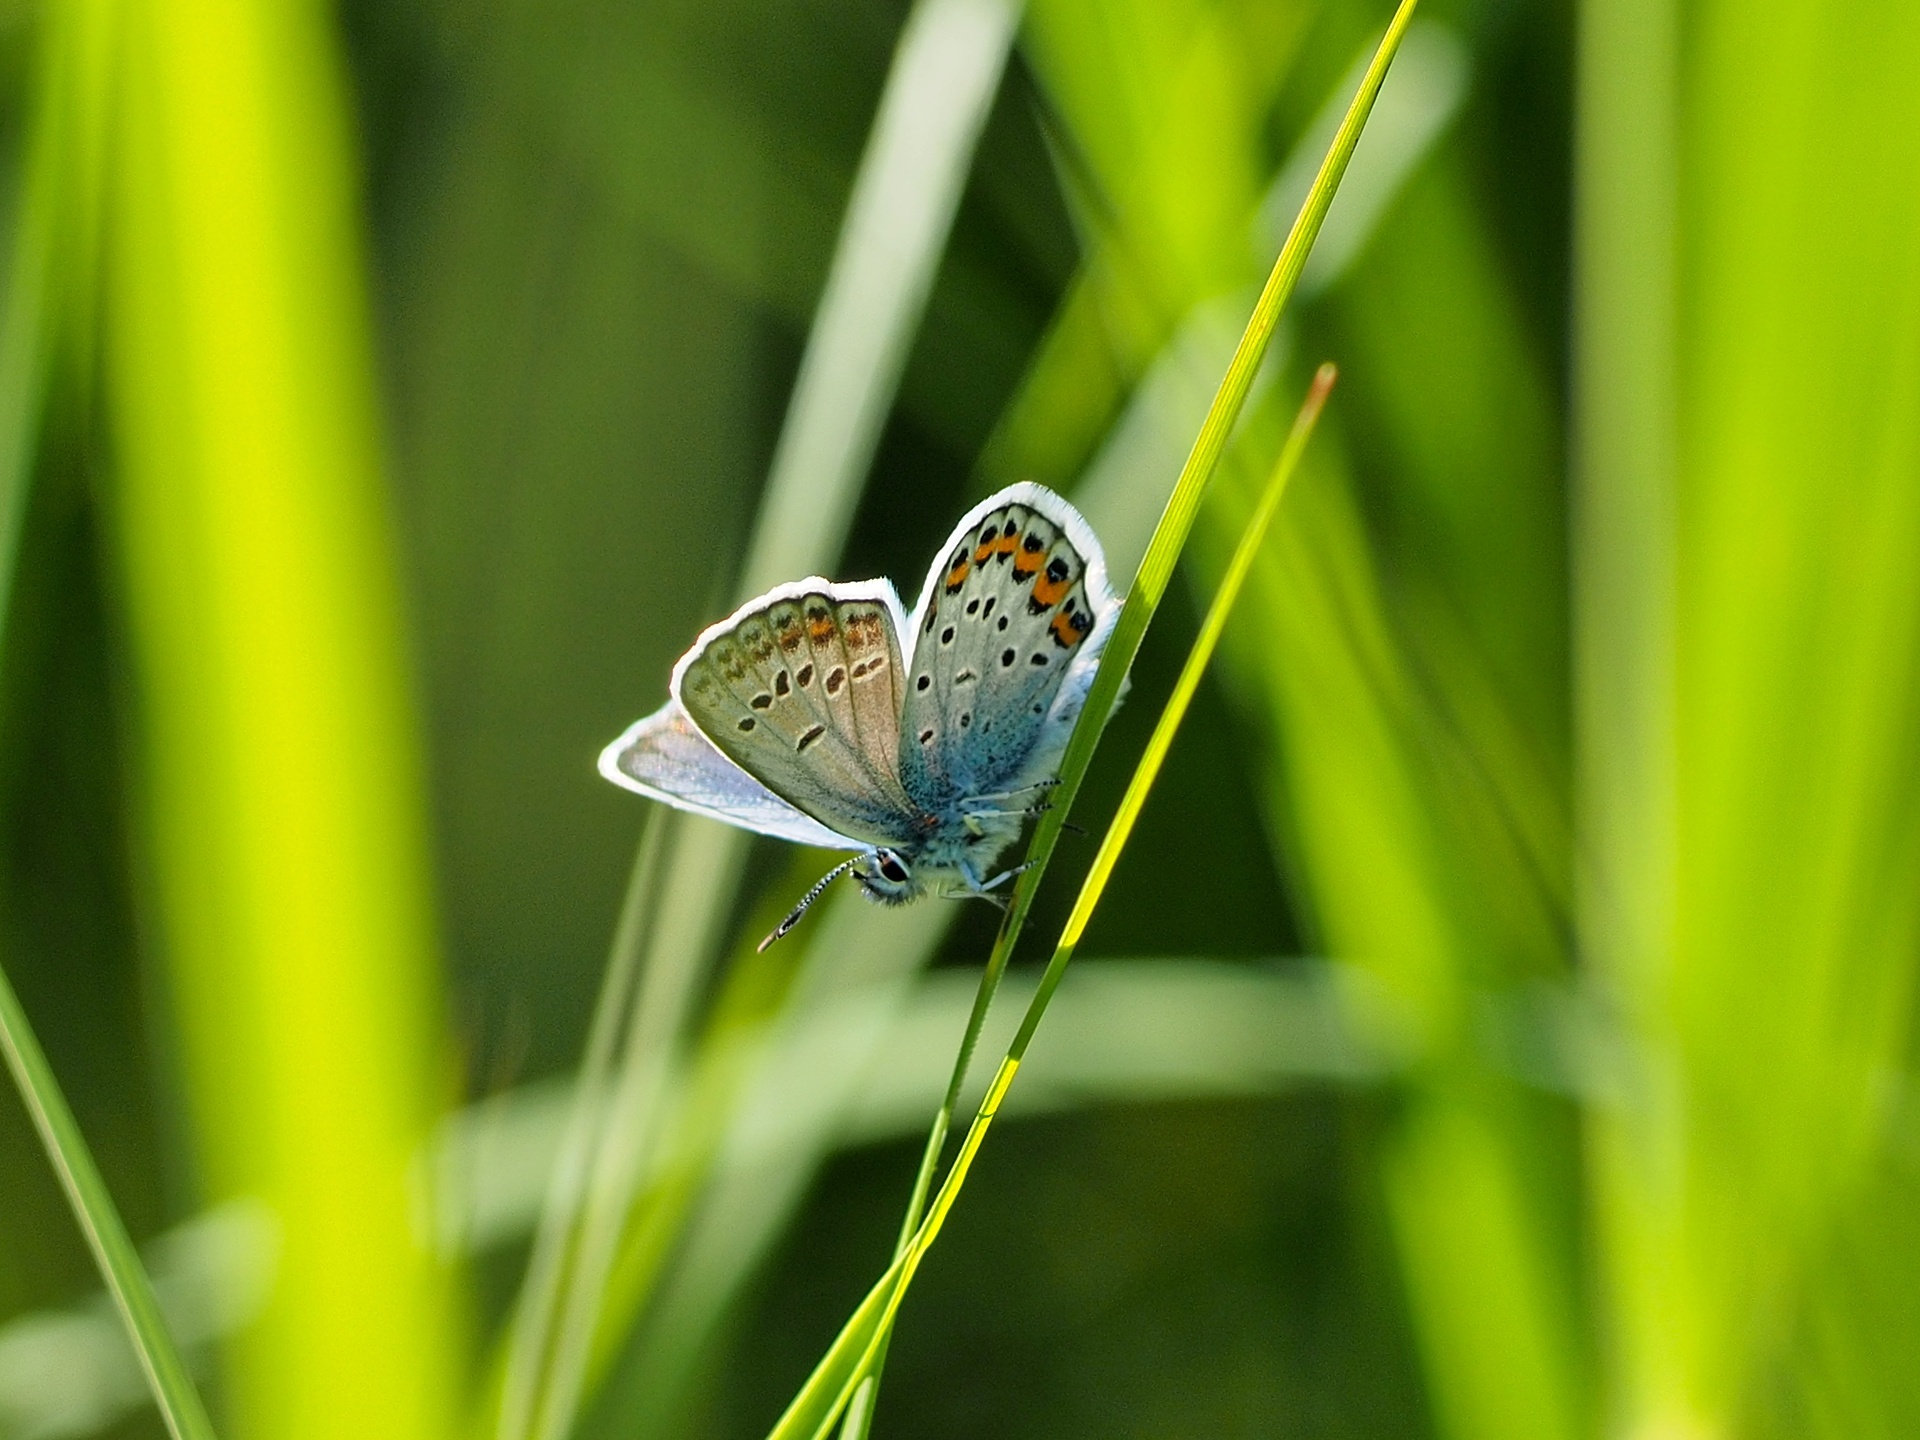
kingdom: Animalia
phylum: Arthropoda
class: Insecta
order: Lepidoptera
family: Lycaenidae
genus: Plebejus
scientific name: Plebejus argus
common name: Silver-studded blue
